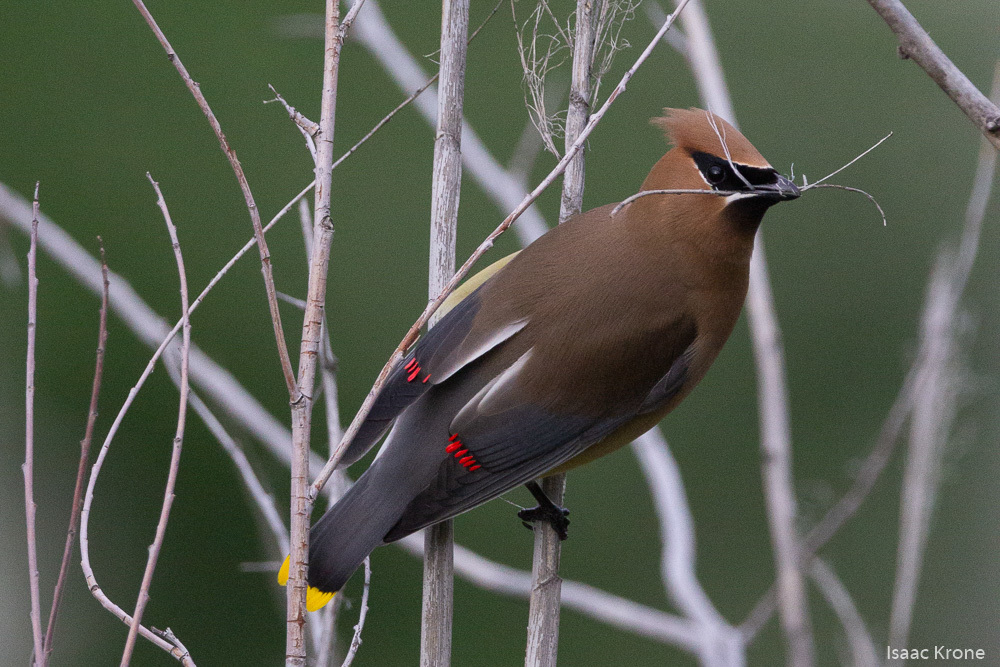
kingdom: Animalia
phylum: Chordata
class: Aves
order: Passeriformes
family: Bombycillidae
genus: Bombycilla
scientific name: Bombycilla cedrorum
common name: Cedar waxwing
